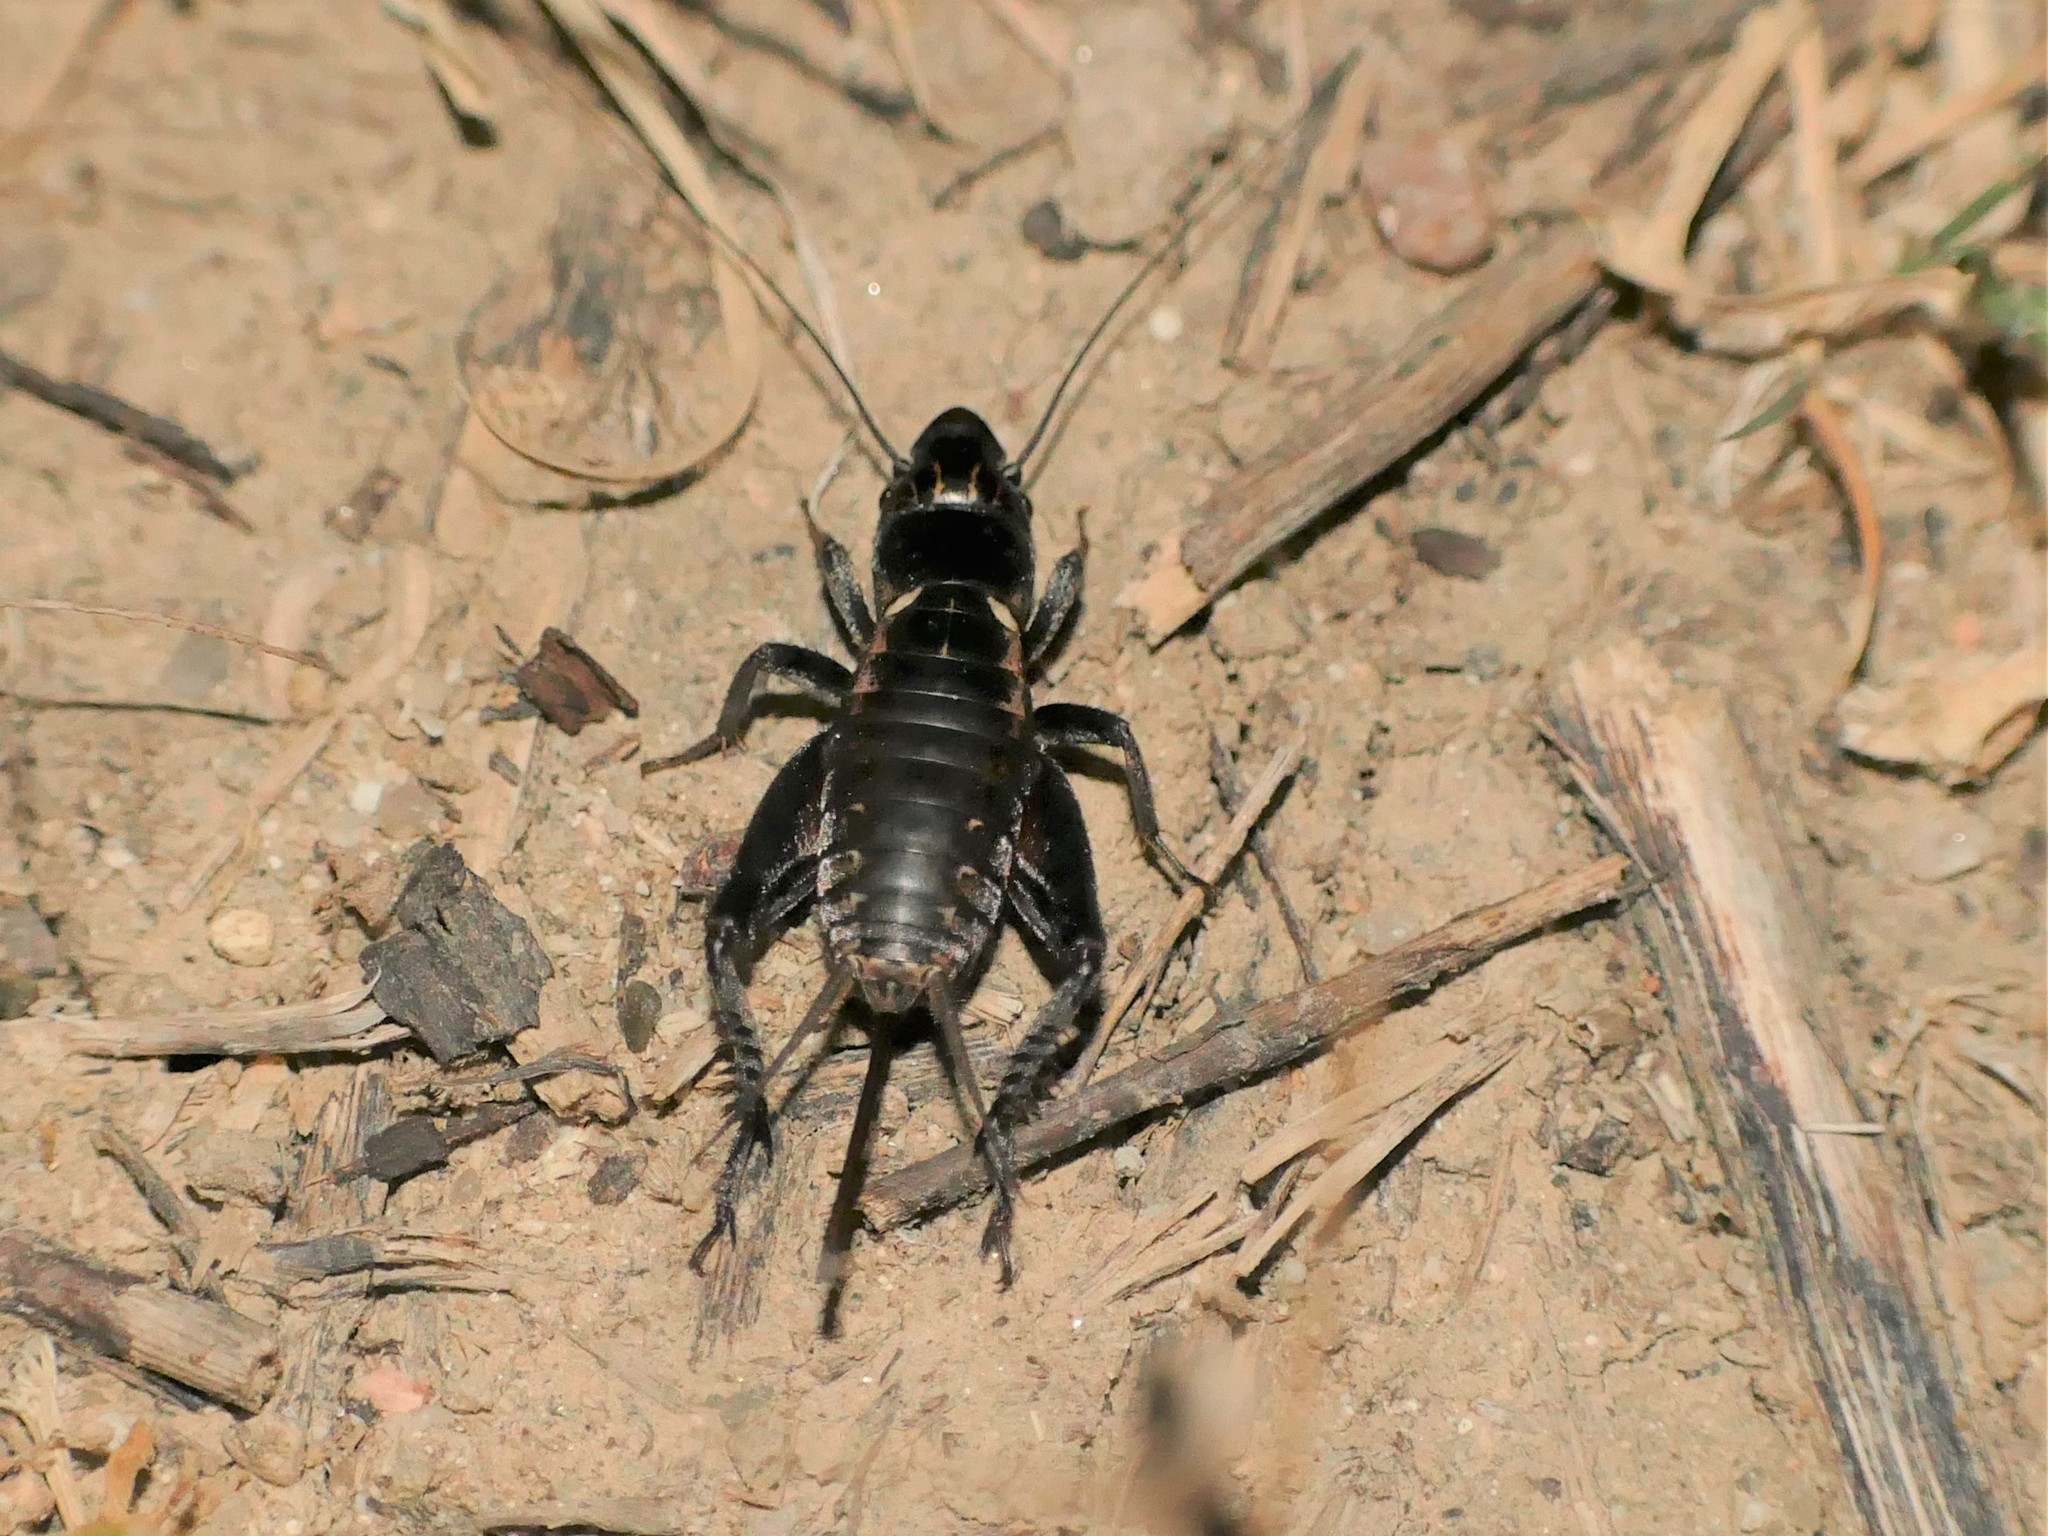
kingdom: Animalia
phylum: Arthropoda
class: Insecta
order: Orthoptera
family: Gryllidae
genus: Sciobia
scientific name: Sciobia lusitanica
